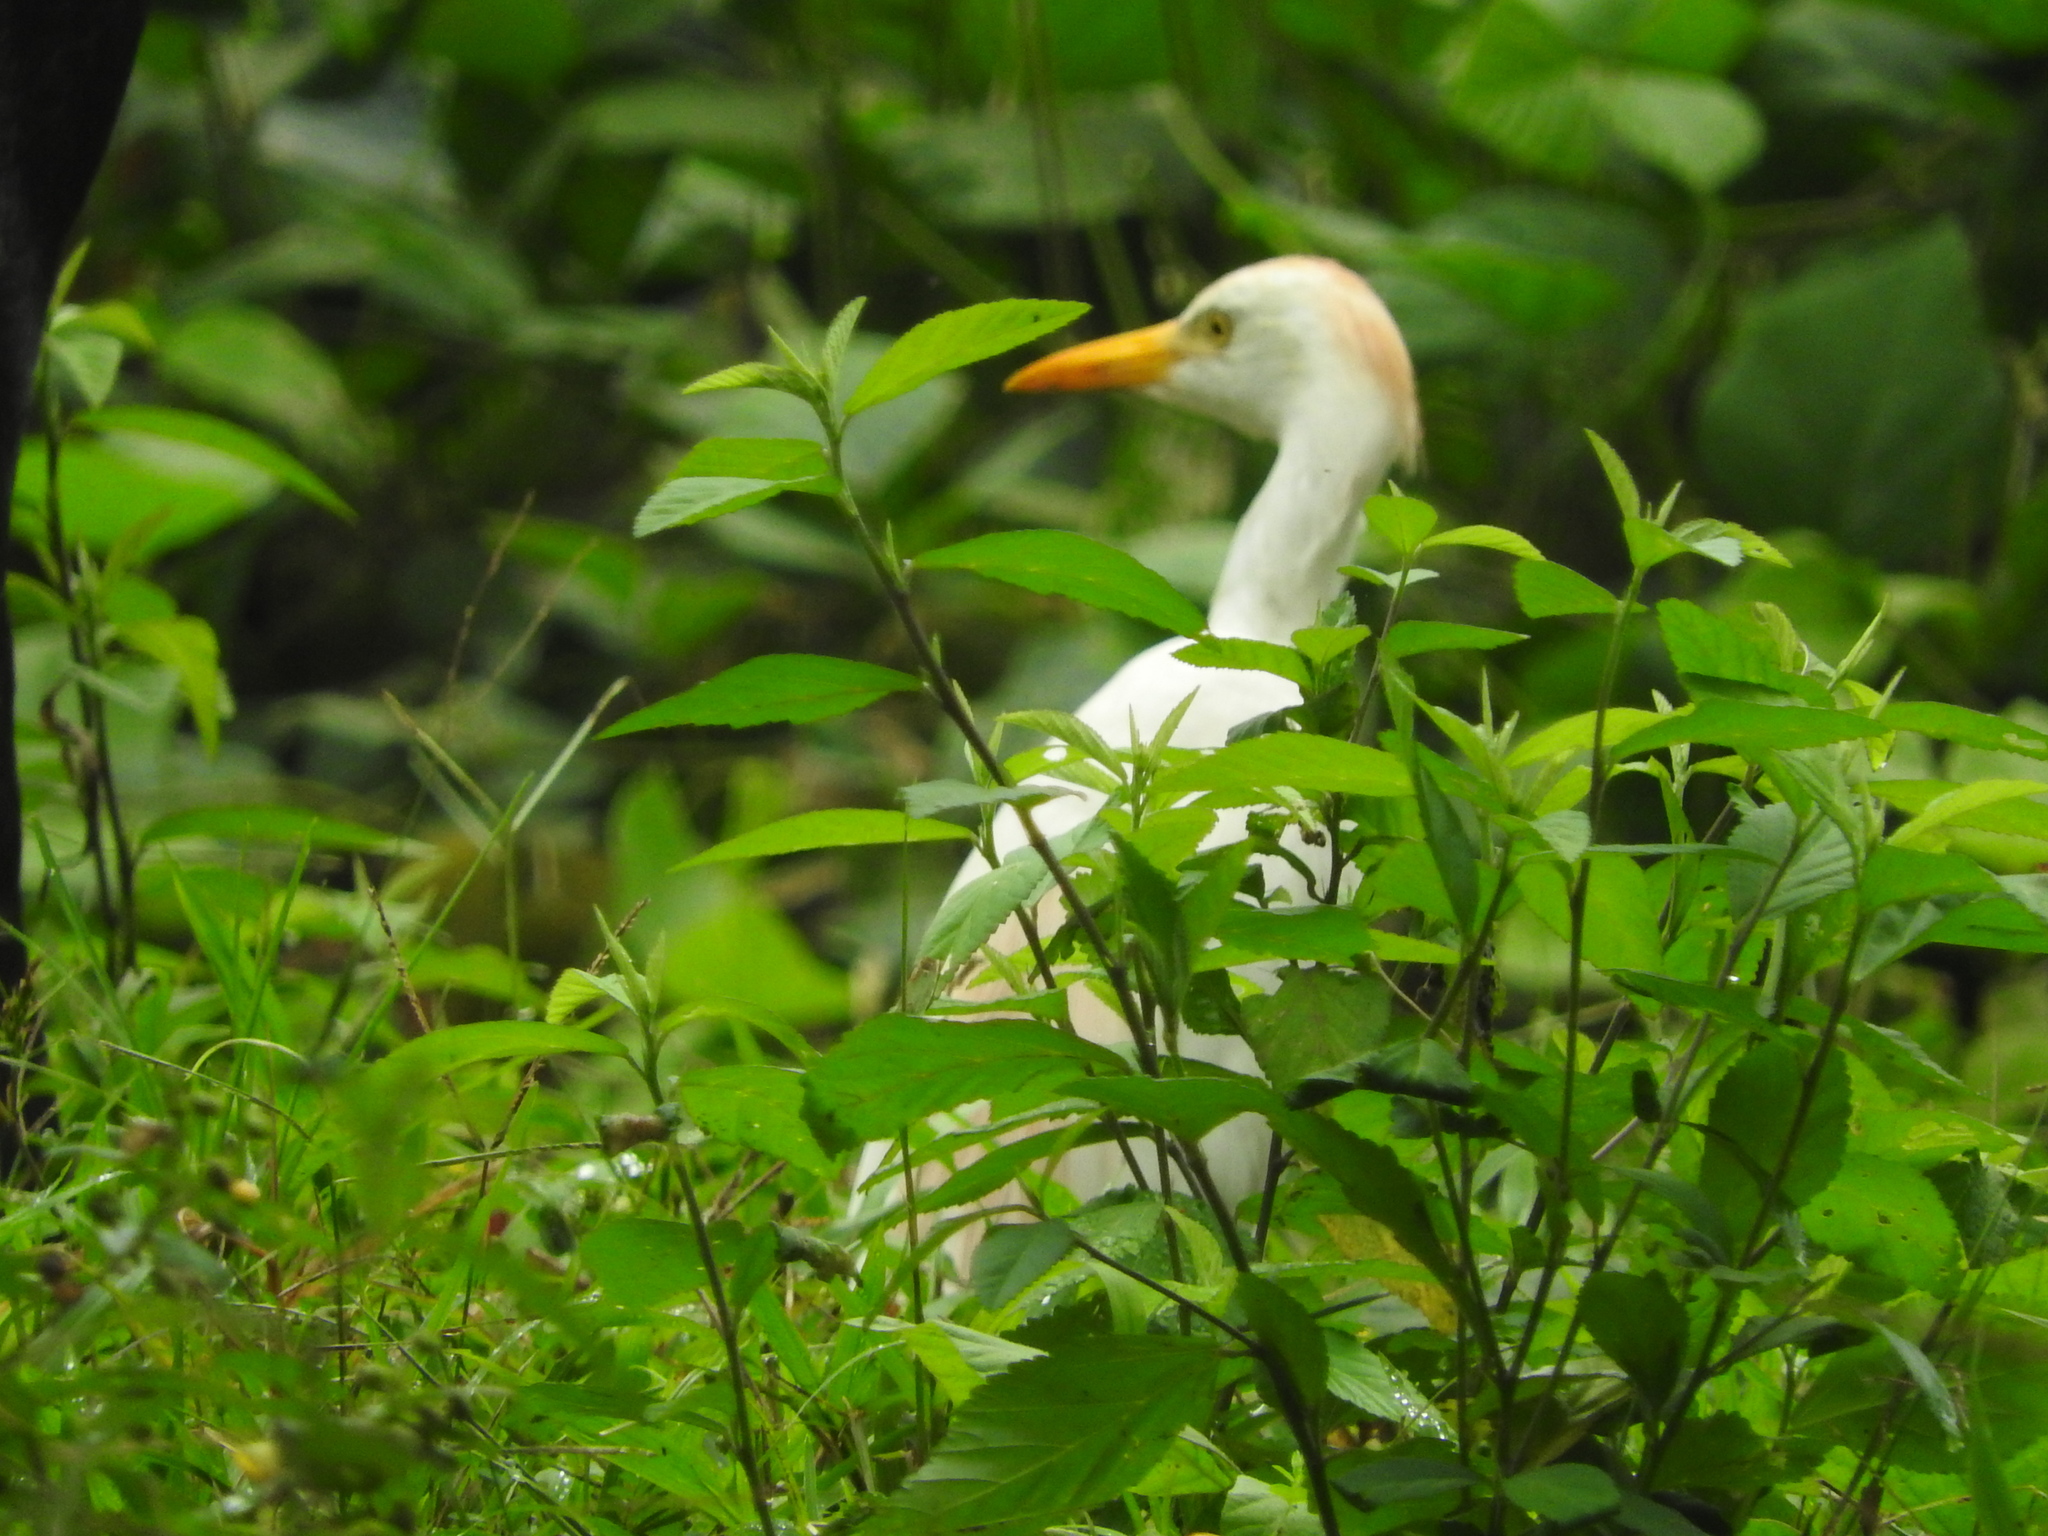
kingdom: Animalia
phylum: Chordata
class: Aves
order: Pelecaniformes
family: Ardeidae
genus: Bubulcus
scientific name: Bubulcus ibis
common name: Cattle egret
